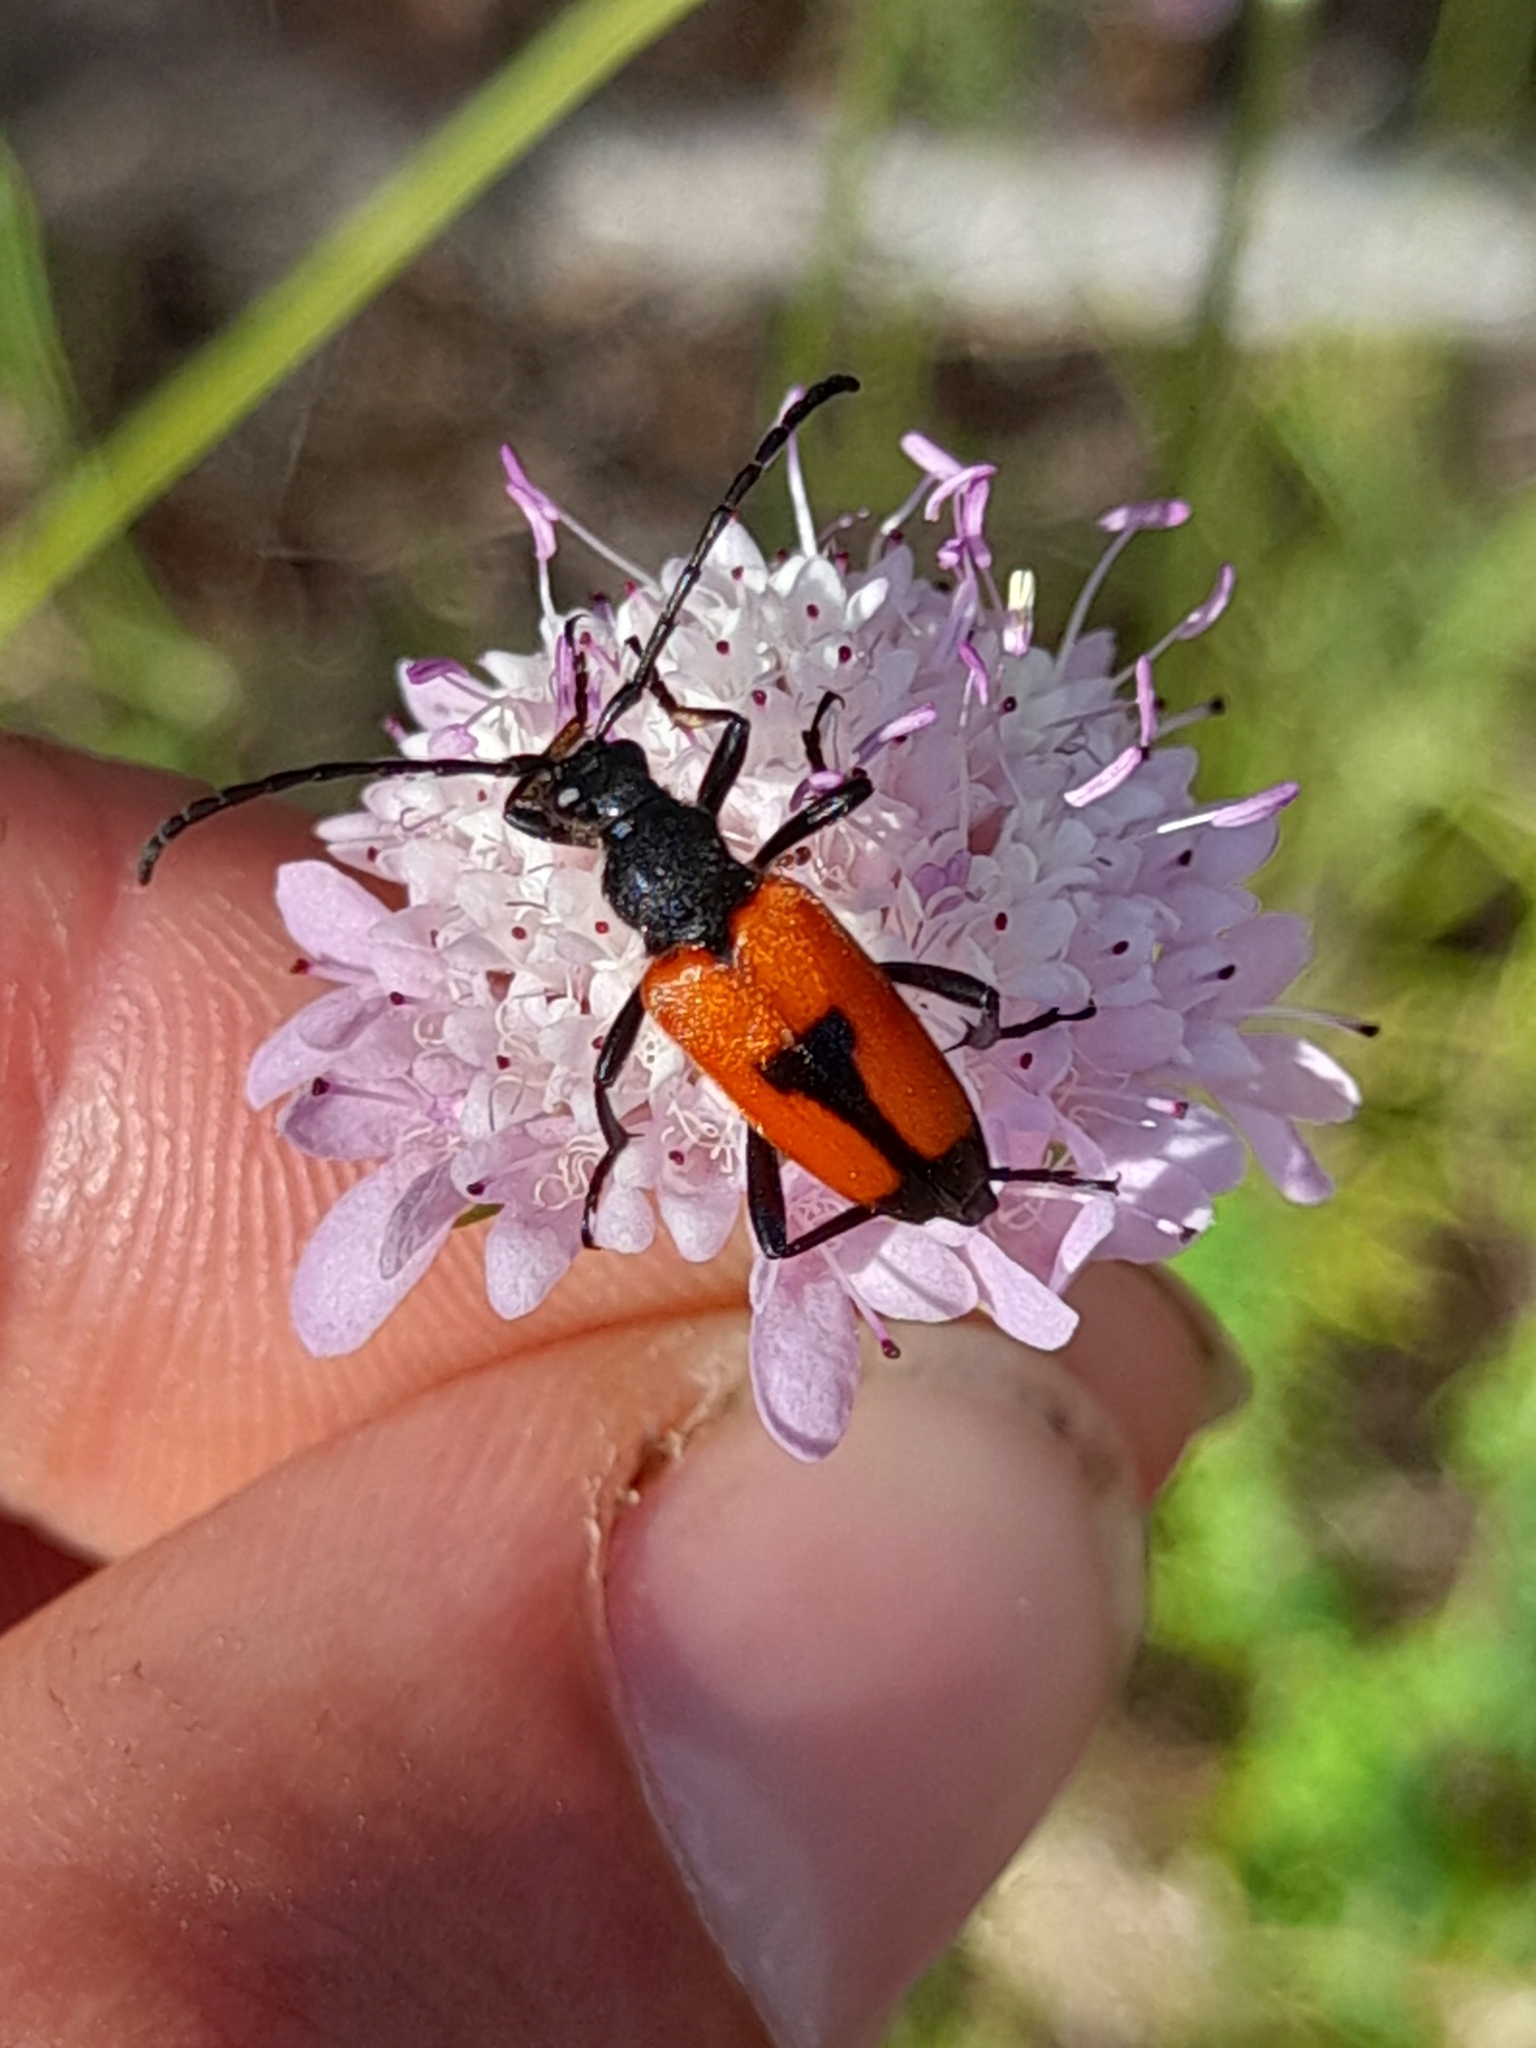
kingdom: Animalia
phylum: Arthropoda
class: Insecta
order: Coleoptera
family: Cerambycidae
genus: Stictoleptura
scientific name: Stictoleptura cordigera
